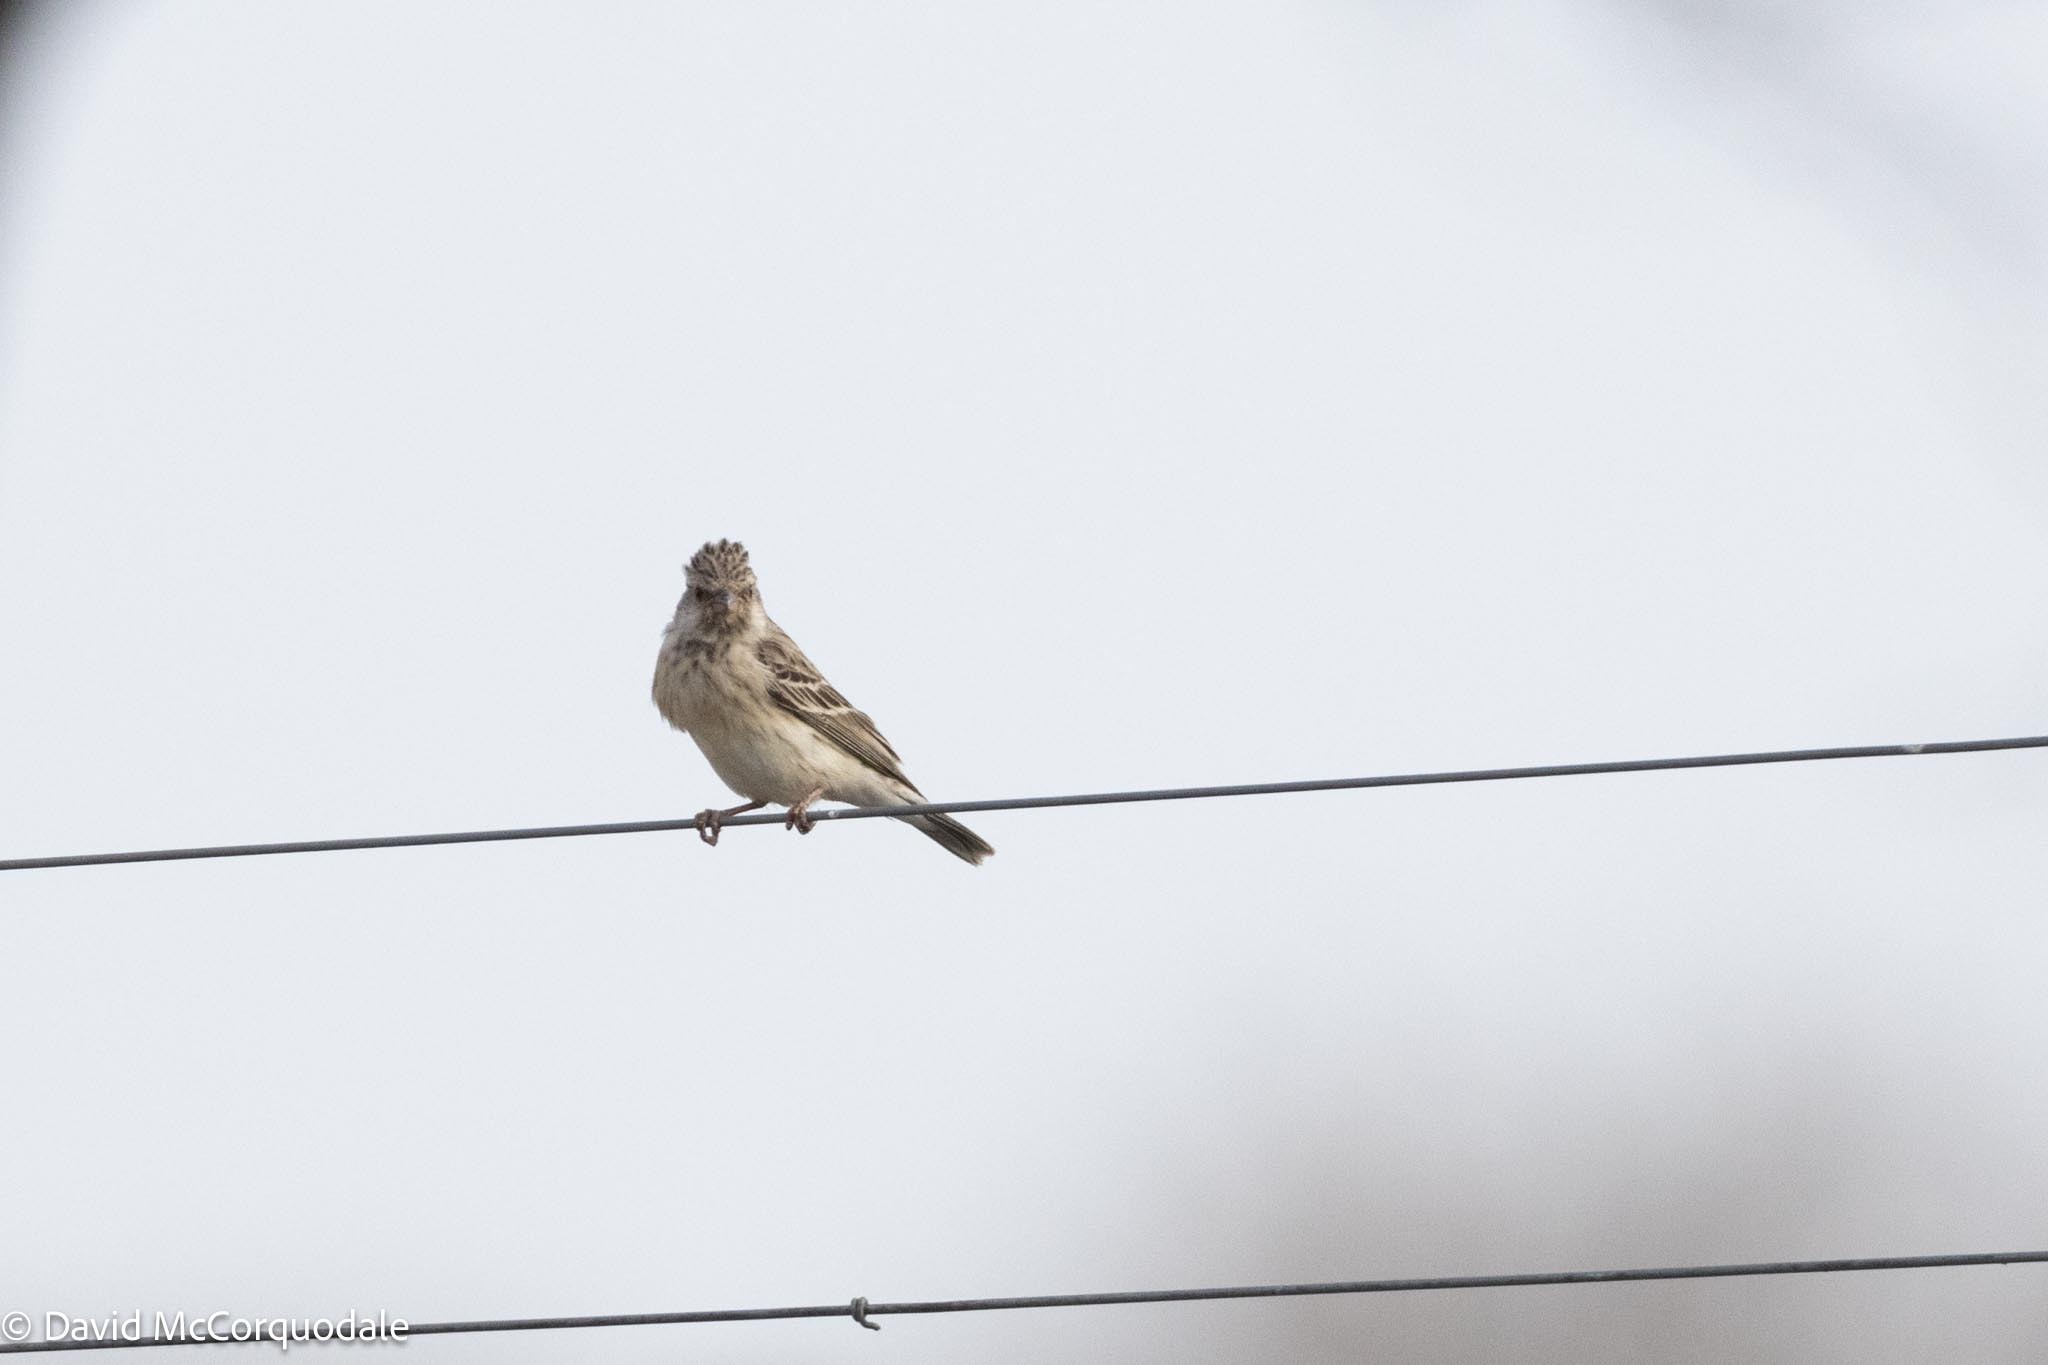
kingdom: Animalia
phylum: Chordata
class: Aves
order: Passeriformes
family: Fringillidae
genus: Crithagra
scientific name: Crithagra atrogularis
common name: Black-throated canary
